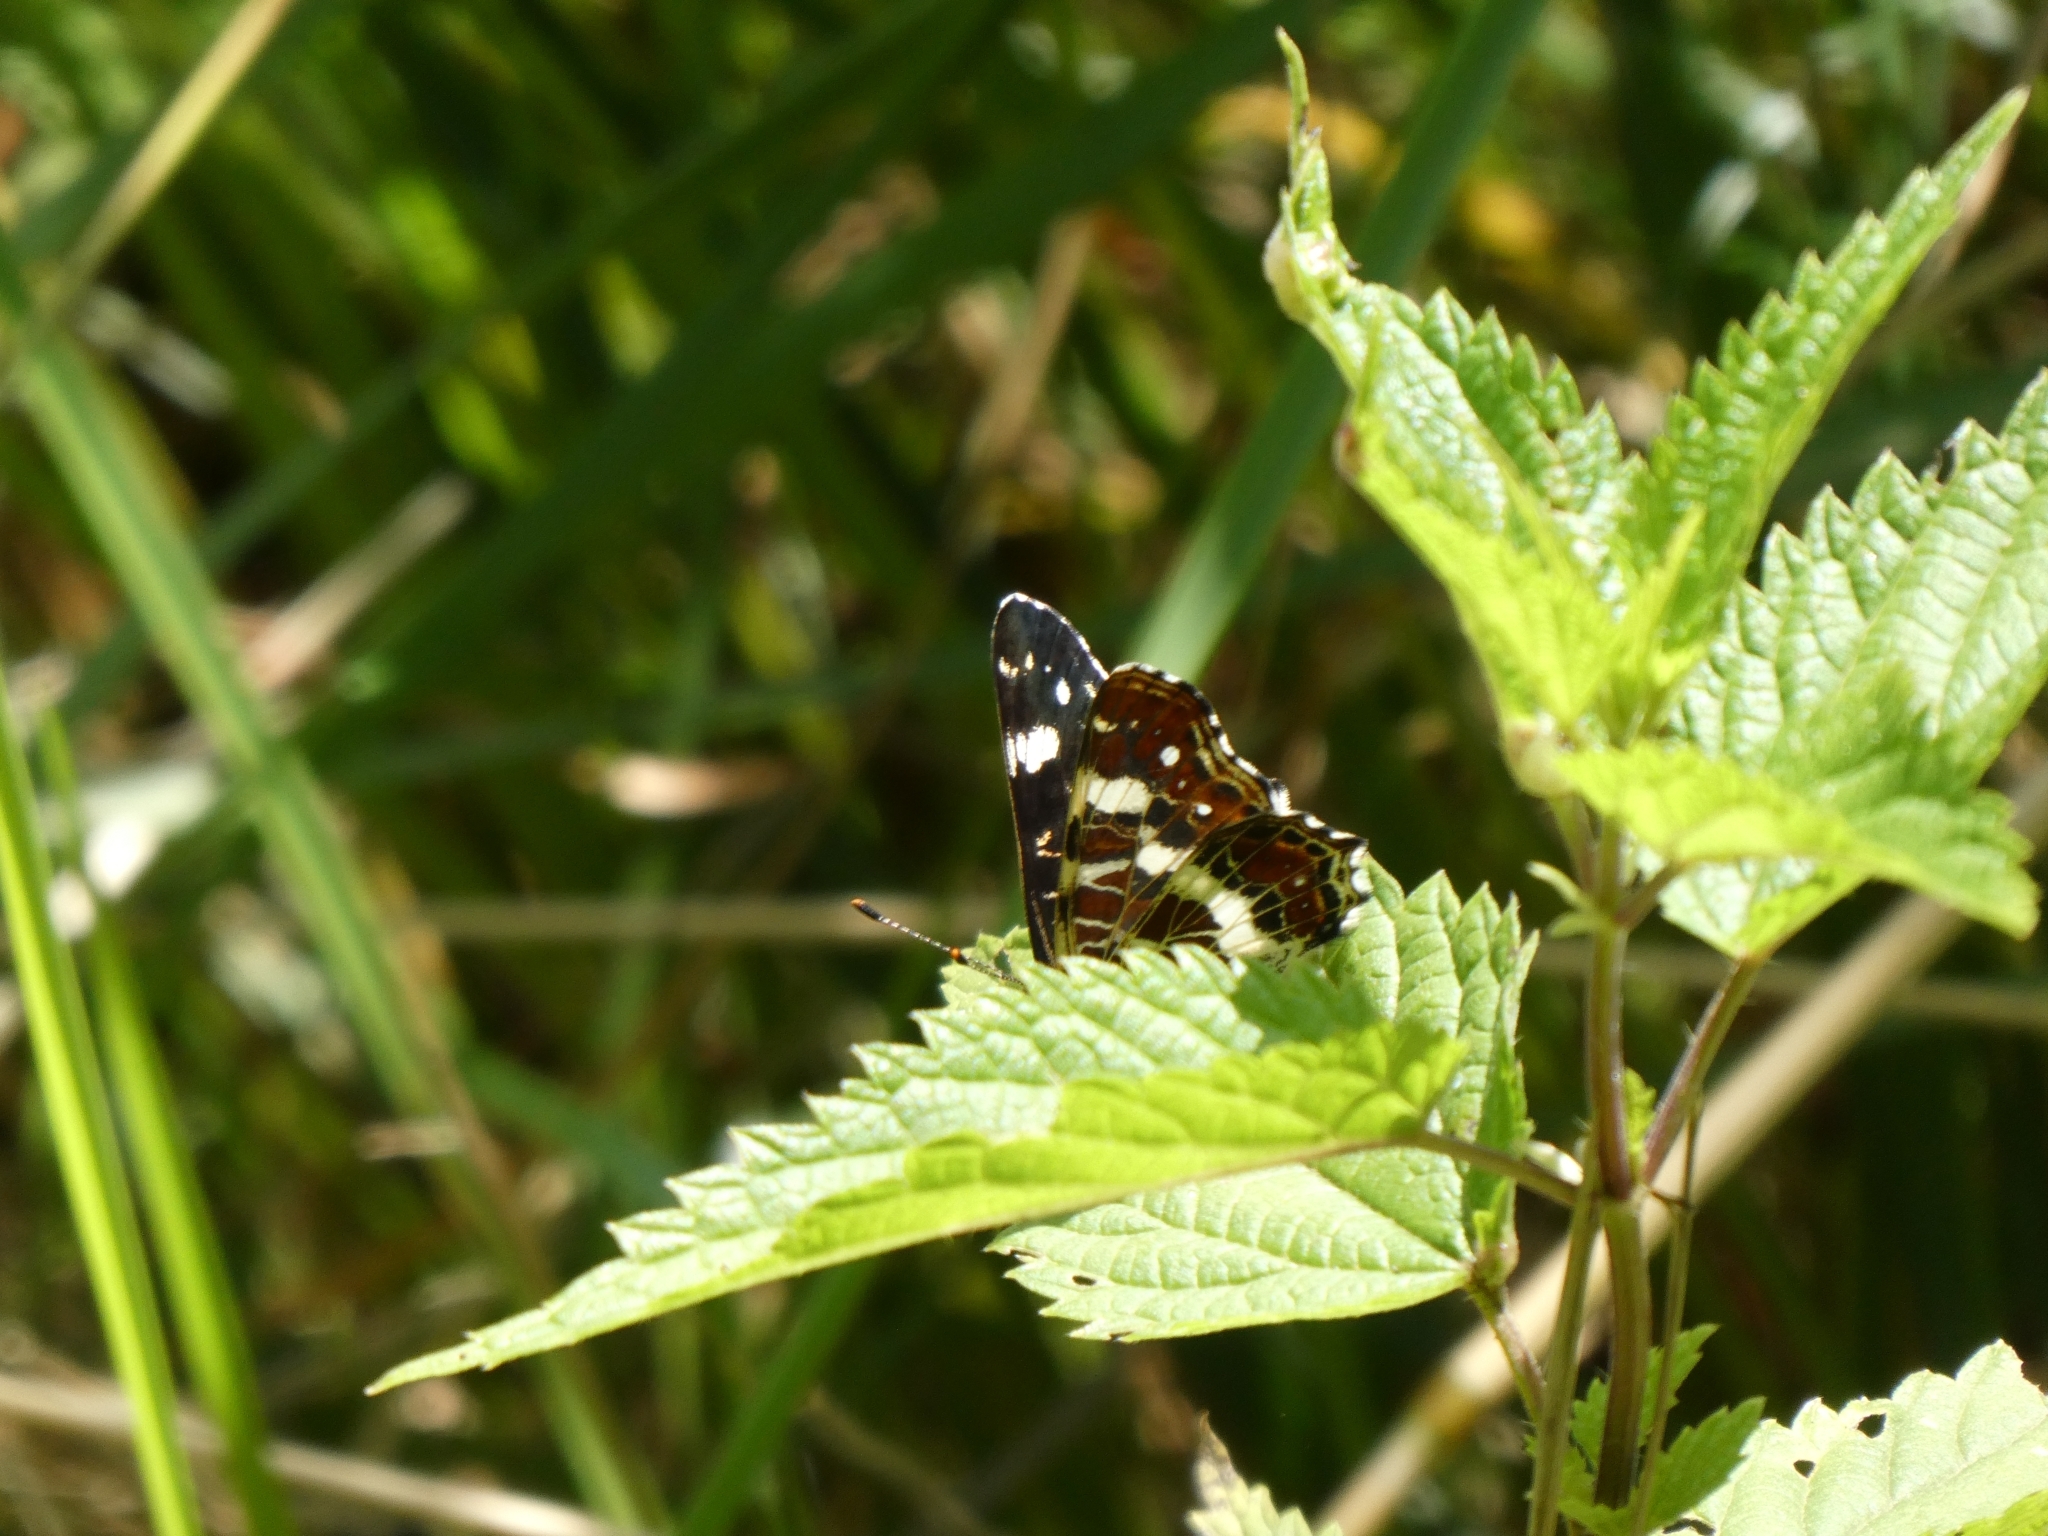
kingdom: Animalia
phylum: Arthropoda
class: Insecta
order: Lepidoptera
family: Nymphalidae
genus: Araschnia
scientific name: Araschnia levana
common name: Map butterfly
